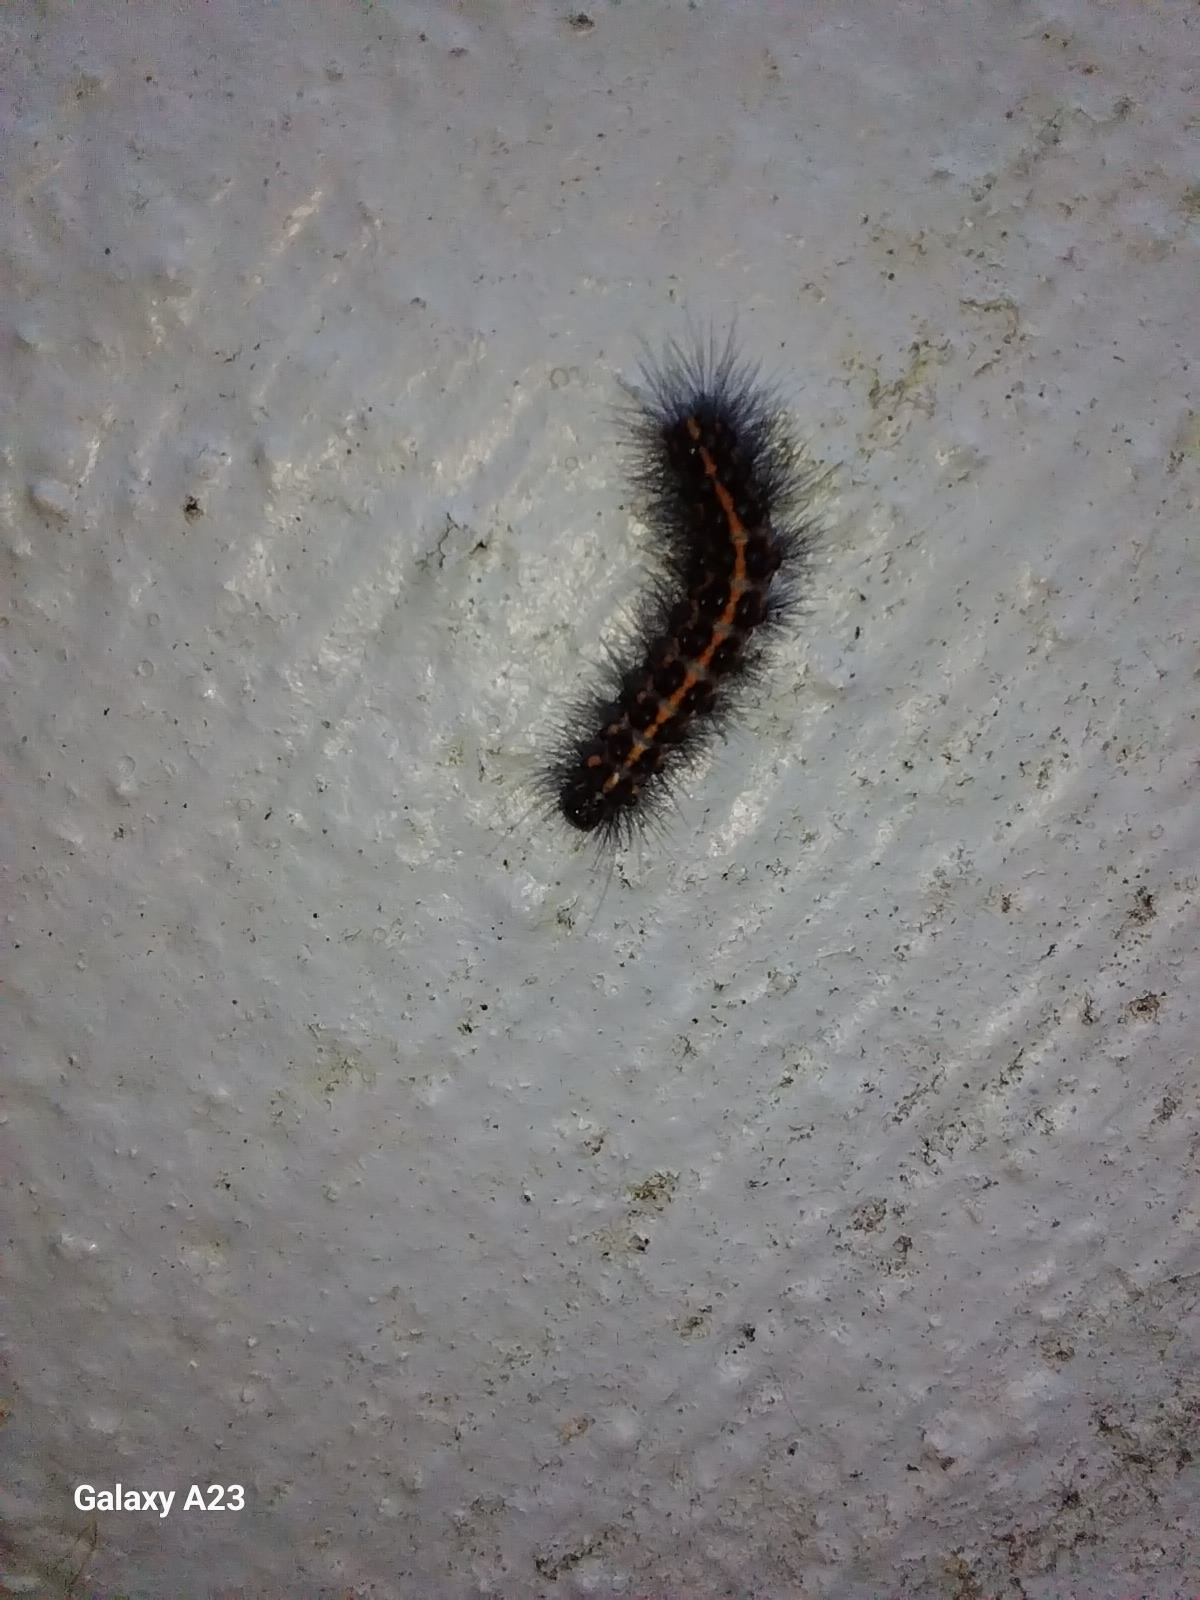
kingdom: Animalia
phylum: Arthropoda
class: Insecta
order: Lepidoptera
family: Erebidae
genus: Nyctemera
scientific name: Nyctemera annulatum
